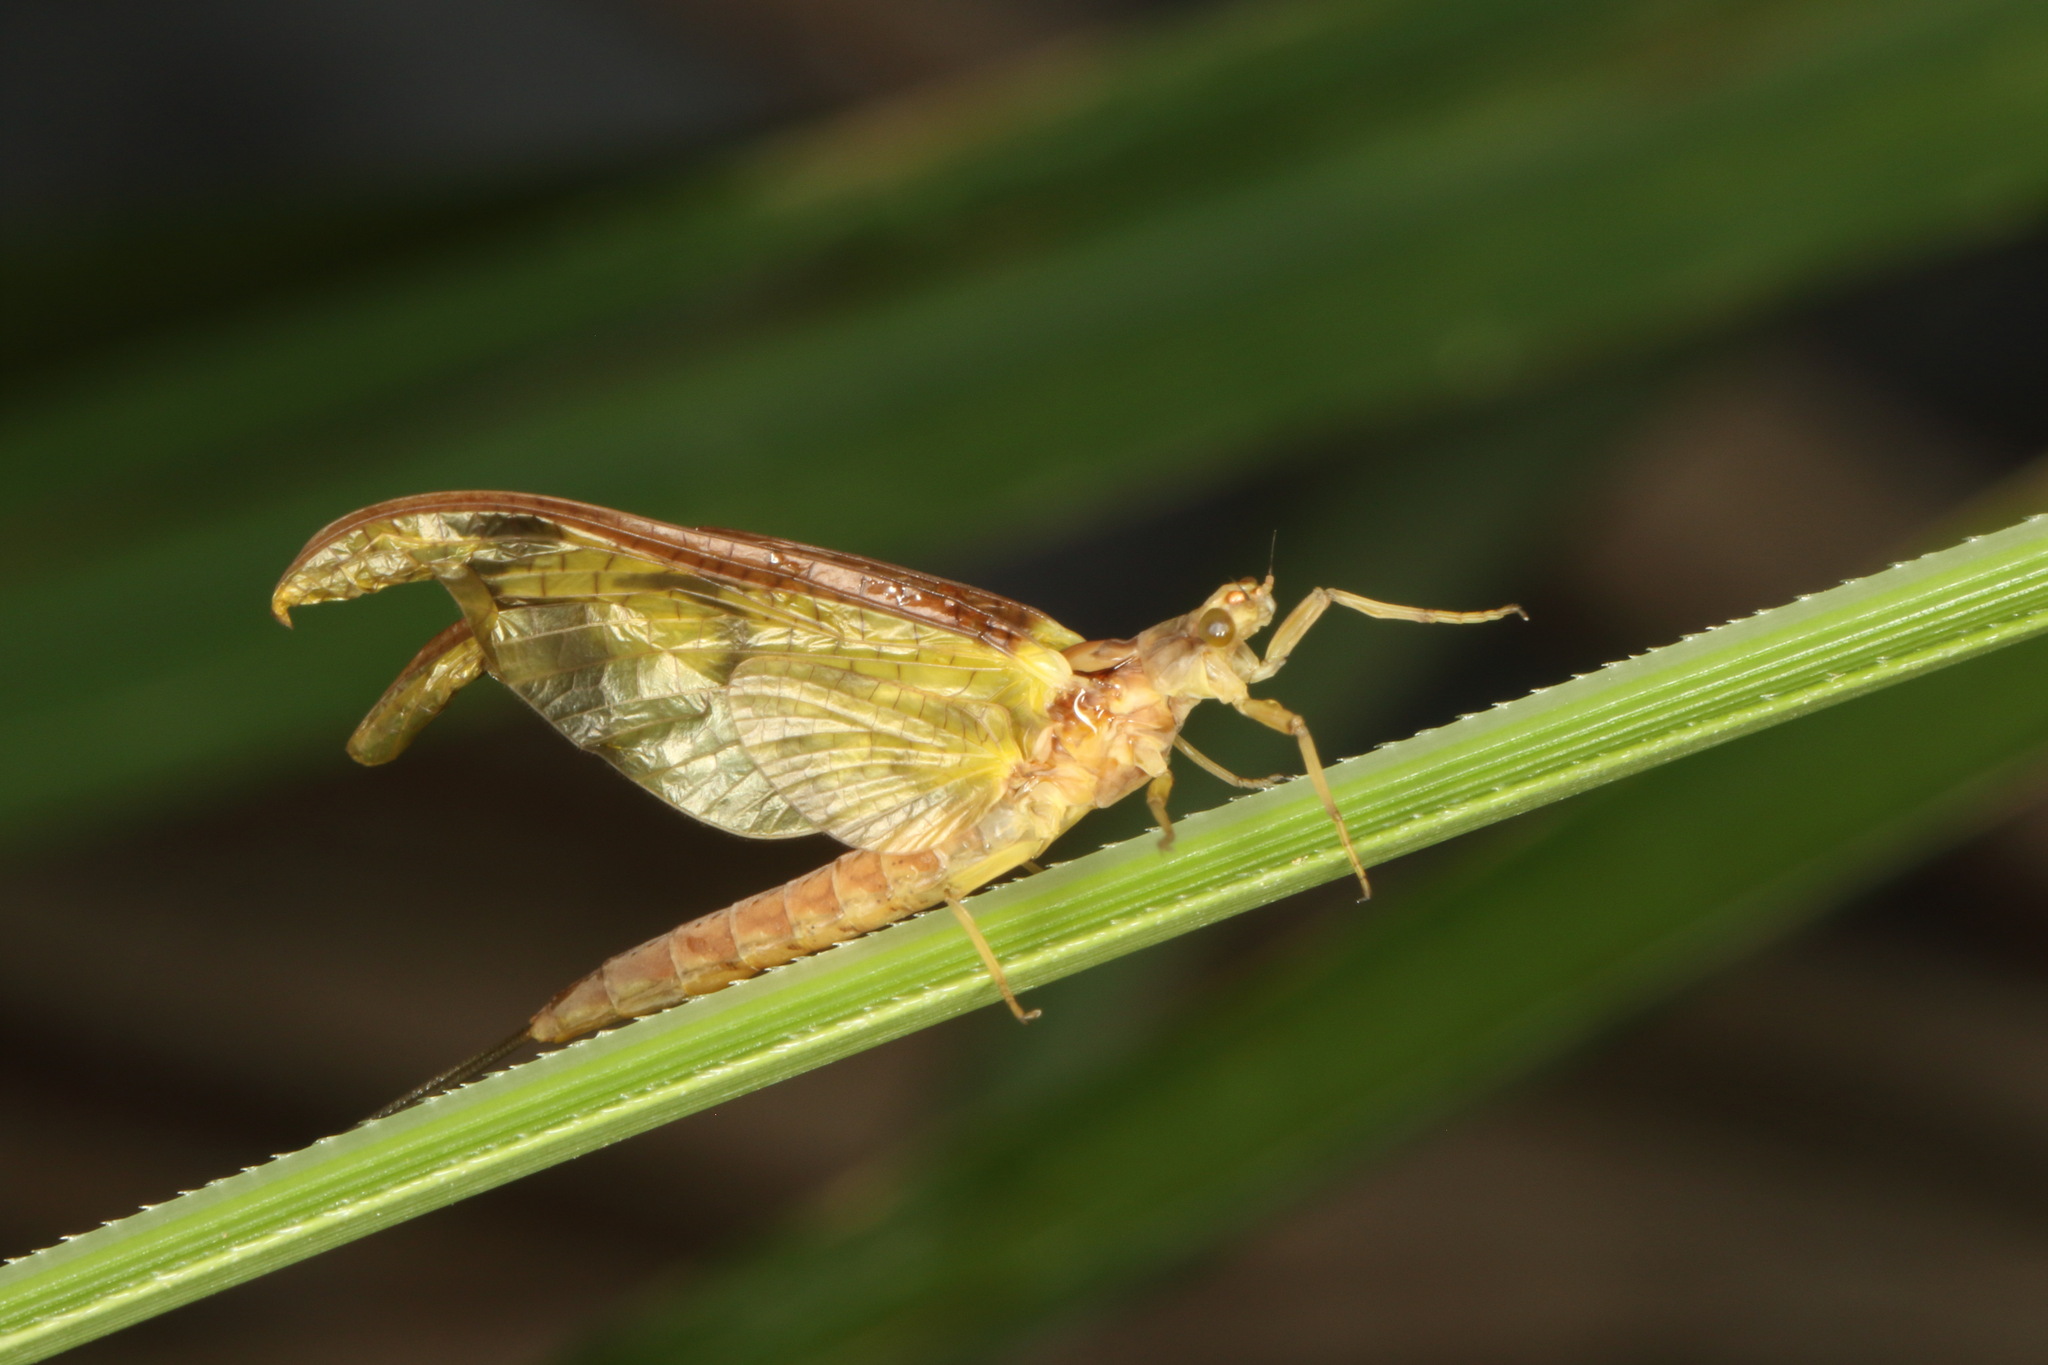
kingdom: Animalia
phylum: Arthropoda
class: Insecta
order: Ephemeroptera
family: Ichthybotidae
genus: Ichthybotus
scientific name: Ichthybotus hudsoni
